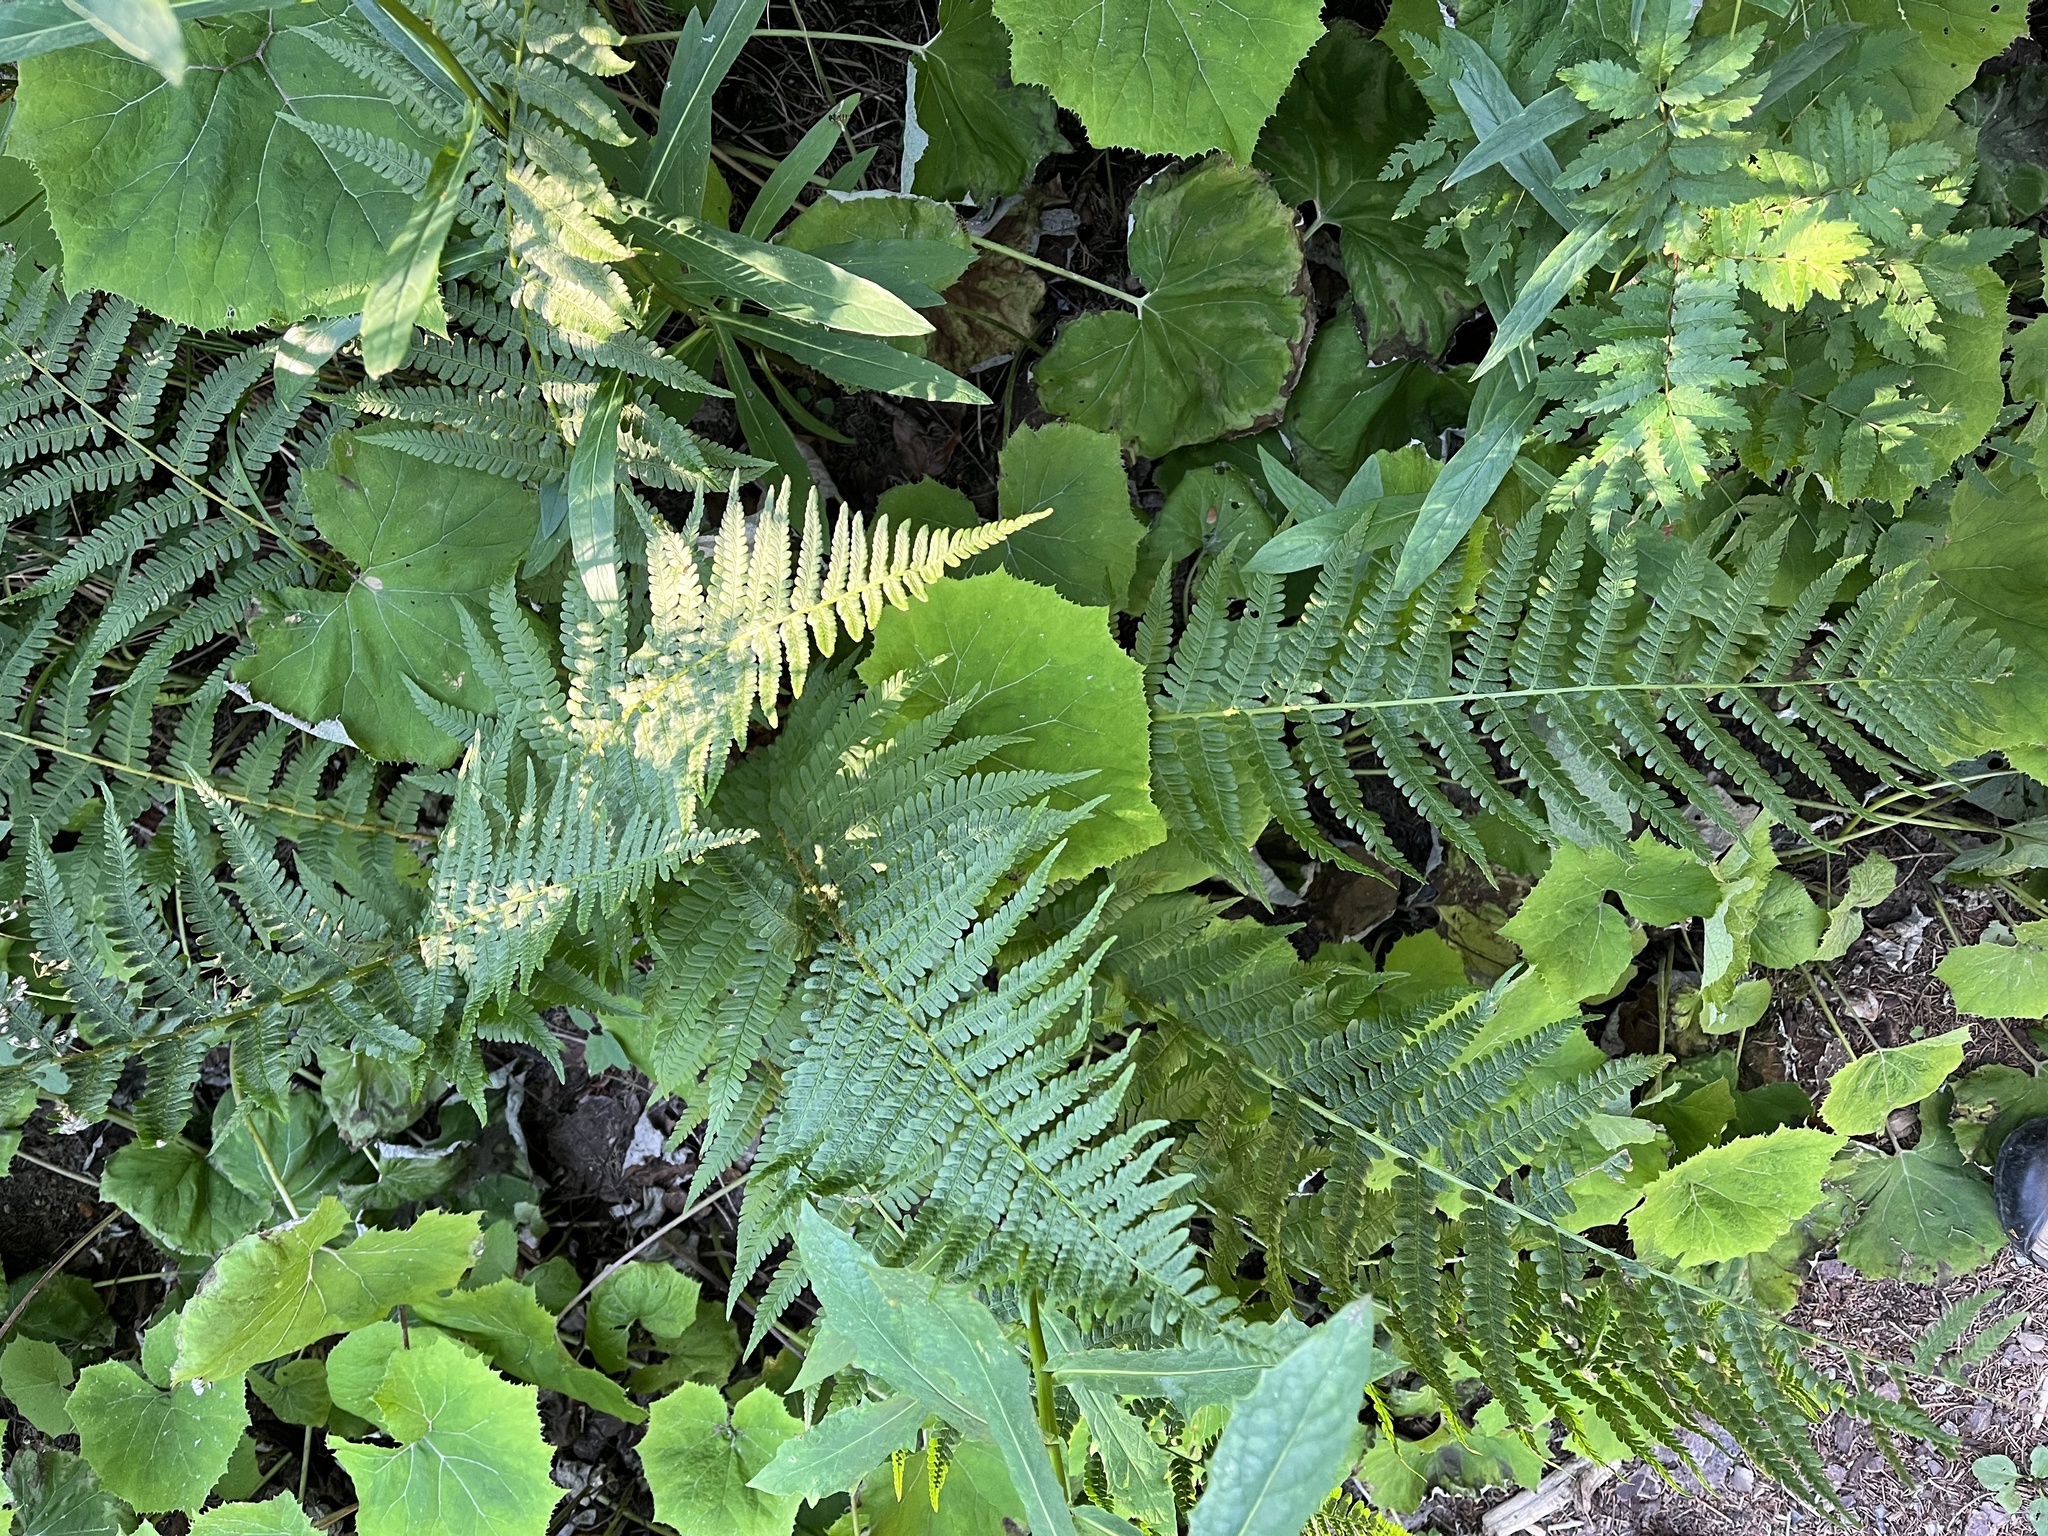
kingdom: Plantae
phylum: Tracheophyta
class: Polypodiopsida
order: Polypodiales
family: Dryopteridaceae
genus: Dryopteris
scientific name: Dryopteris filix-mas
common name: Male fern
